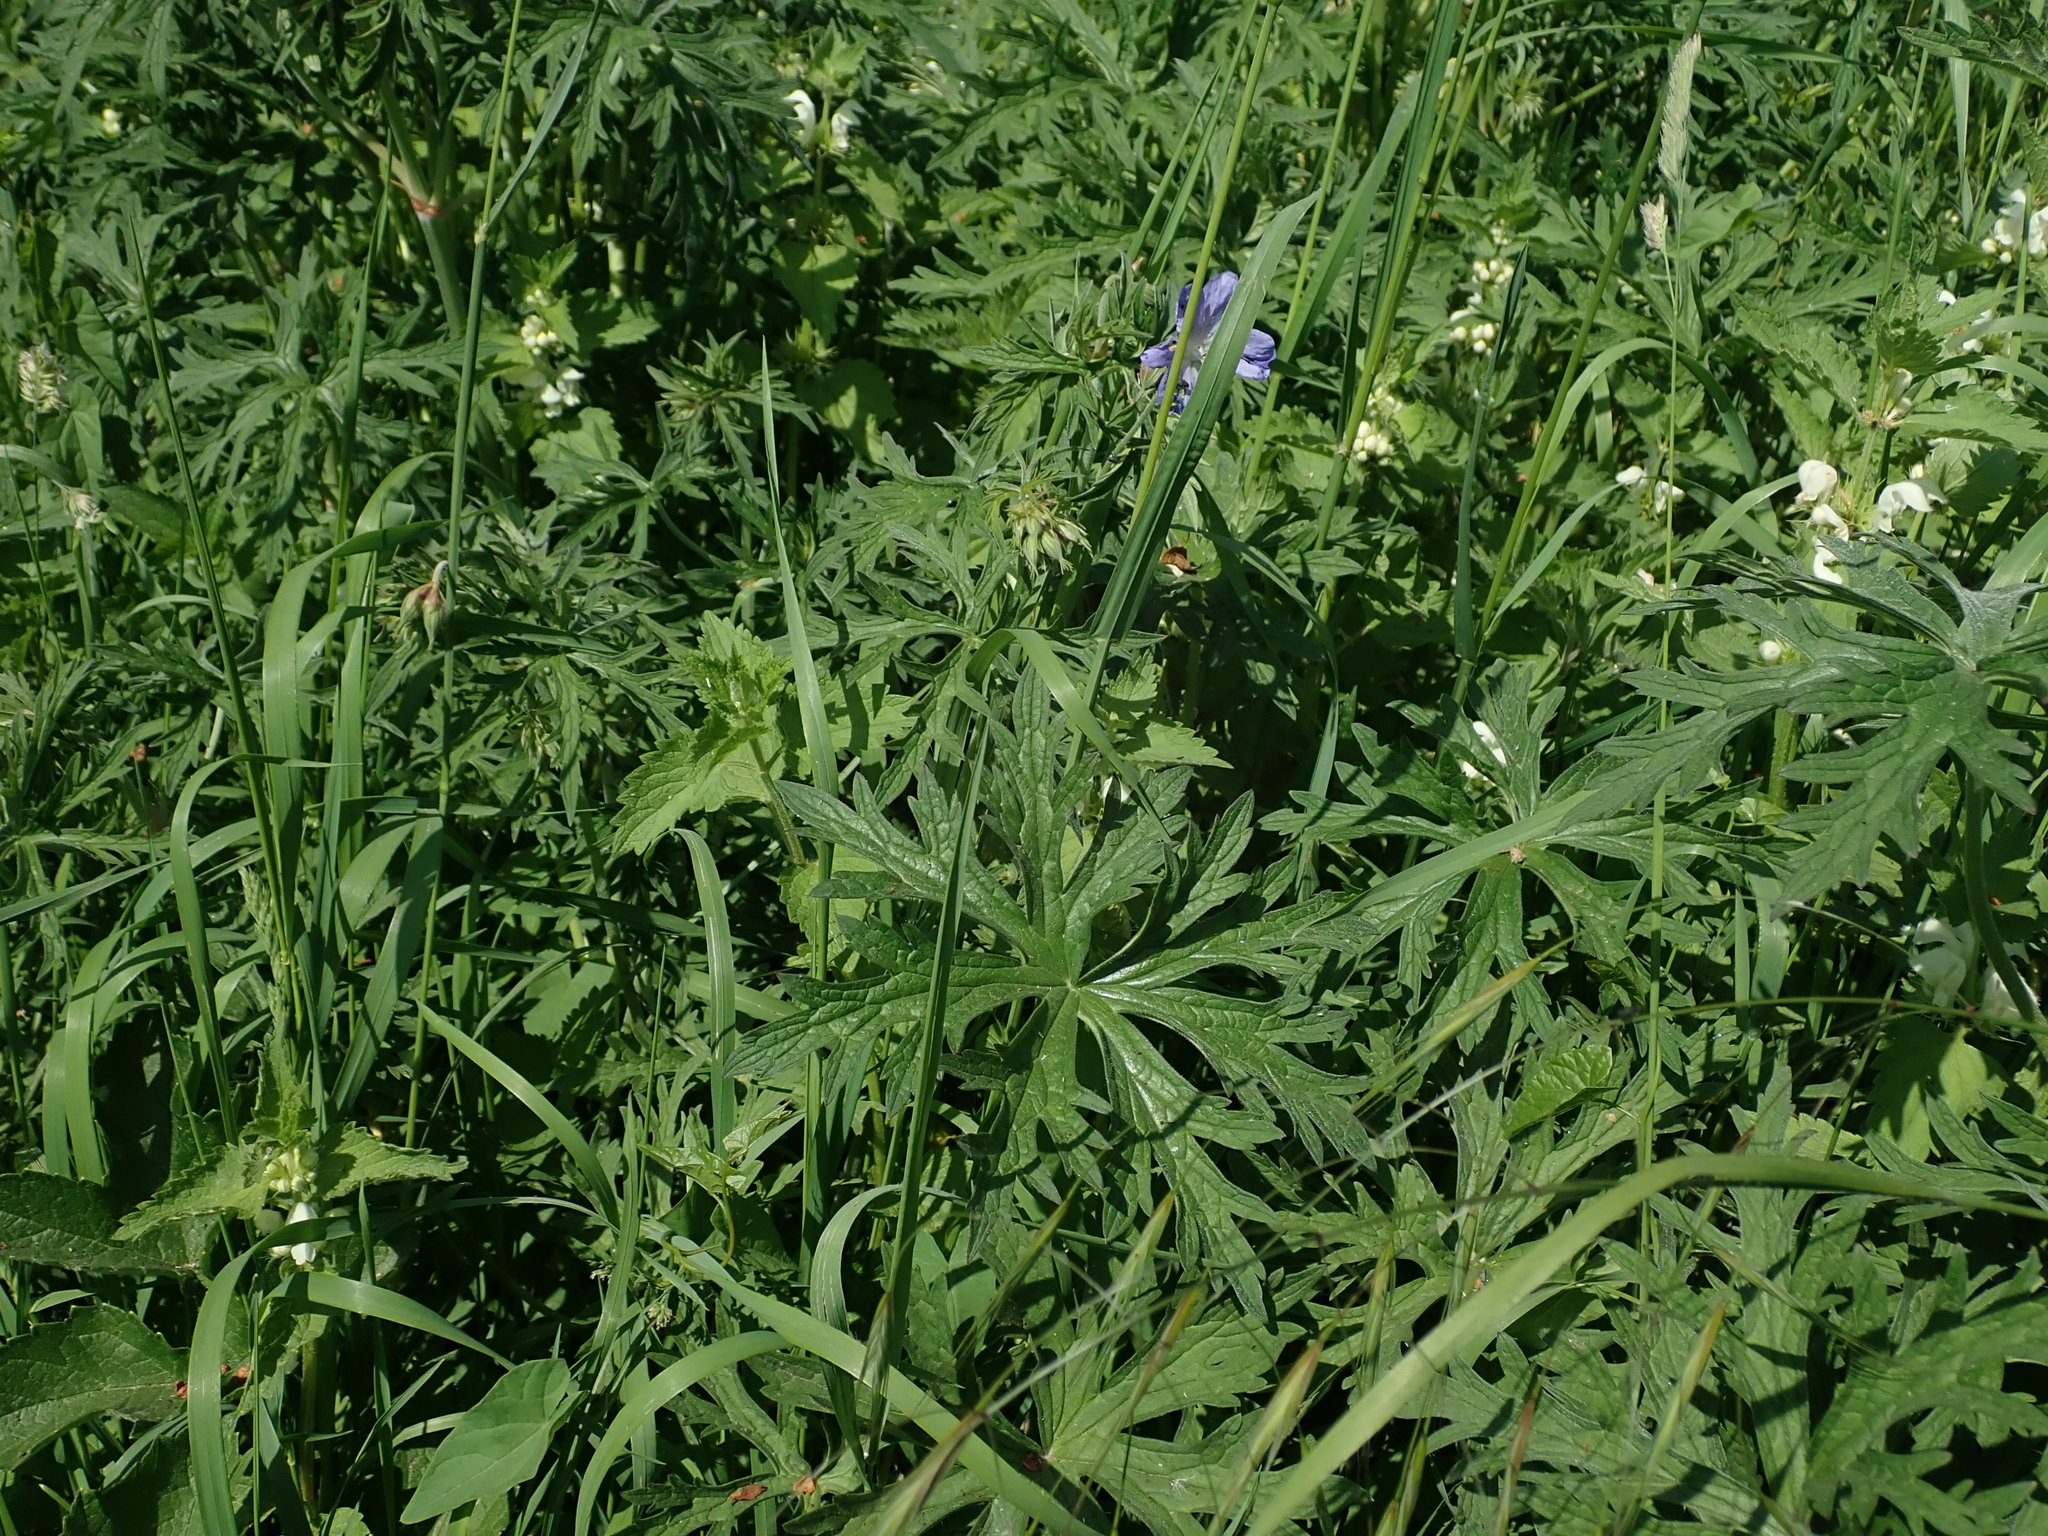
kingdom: Plantae
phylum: Tracheophyta
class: Magnoliopsida
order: Geraniales
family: Geraniaceae
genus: Geranium
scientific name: Geranium pratense
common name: Meadow crane's-bill
